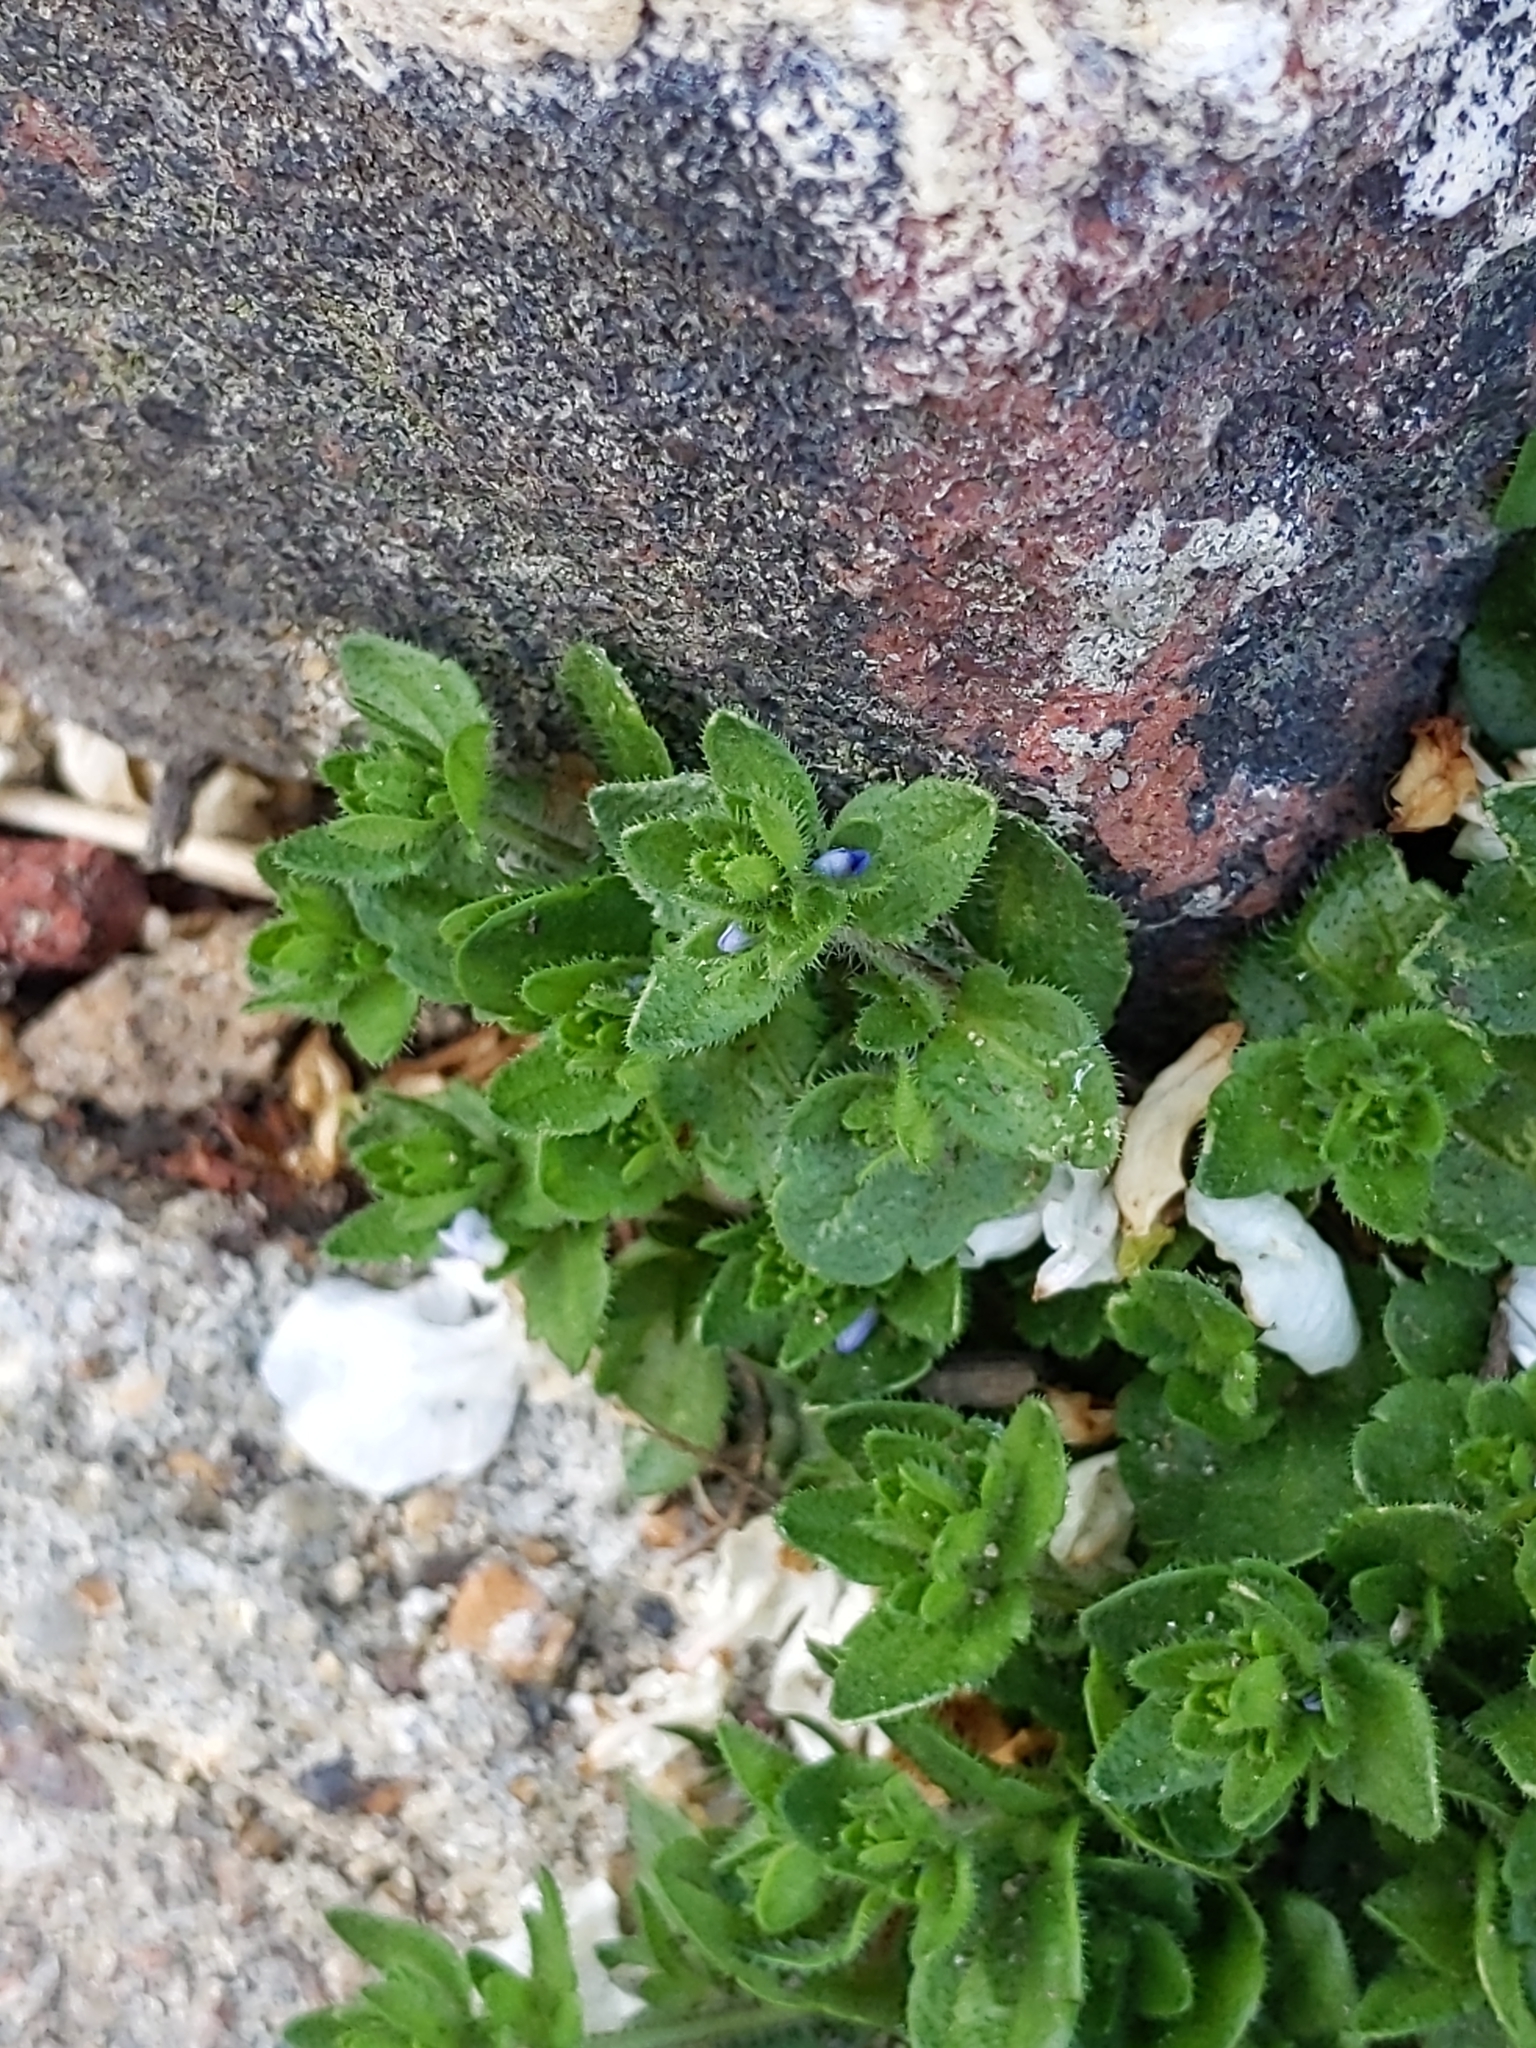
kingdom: Plantae
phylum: Tracheophyta
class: Magnoliopsida
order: Lamiales
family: Plantaginaceae
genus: Veronica
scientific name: Veronica arvensis
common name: Corn speedwell
